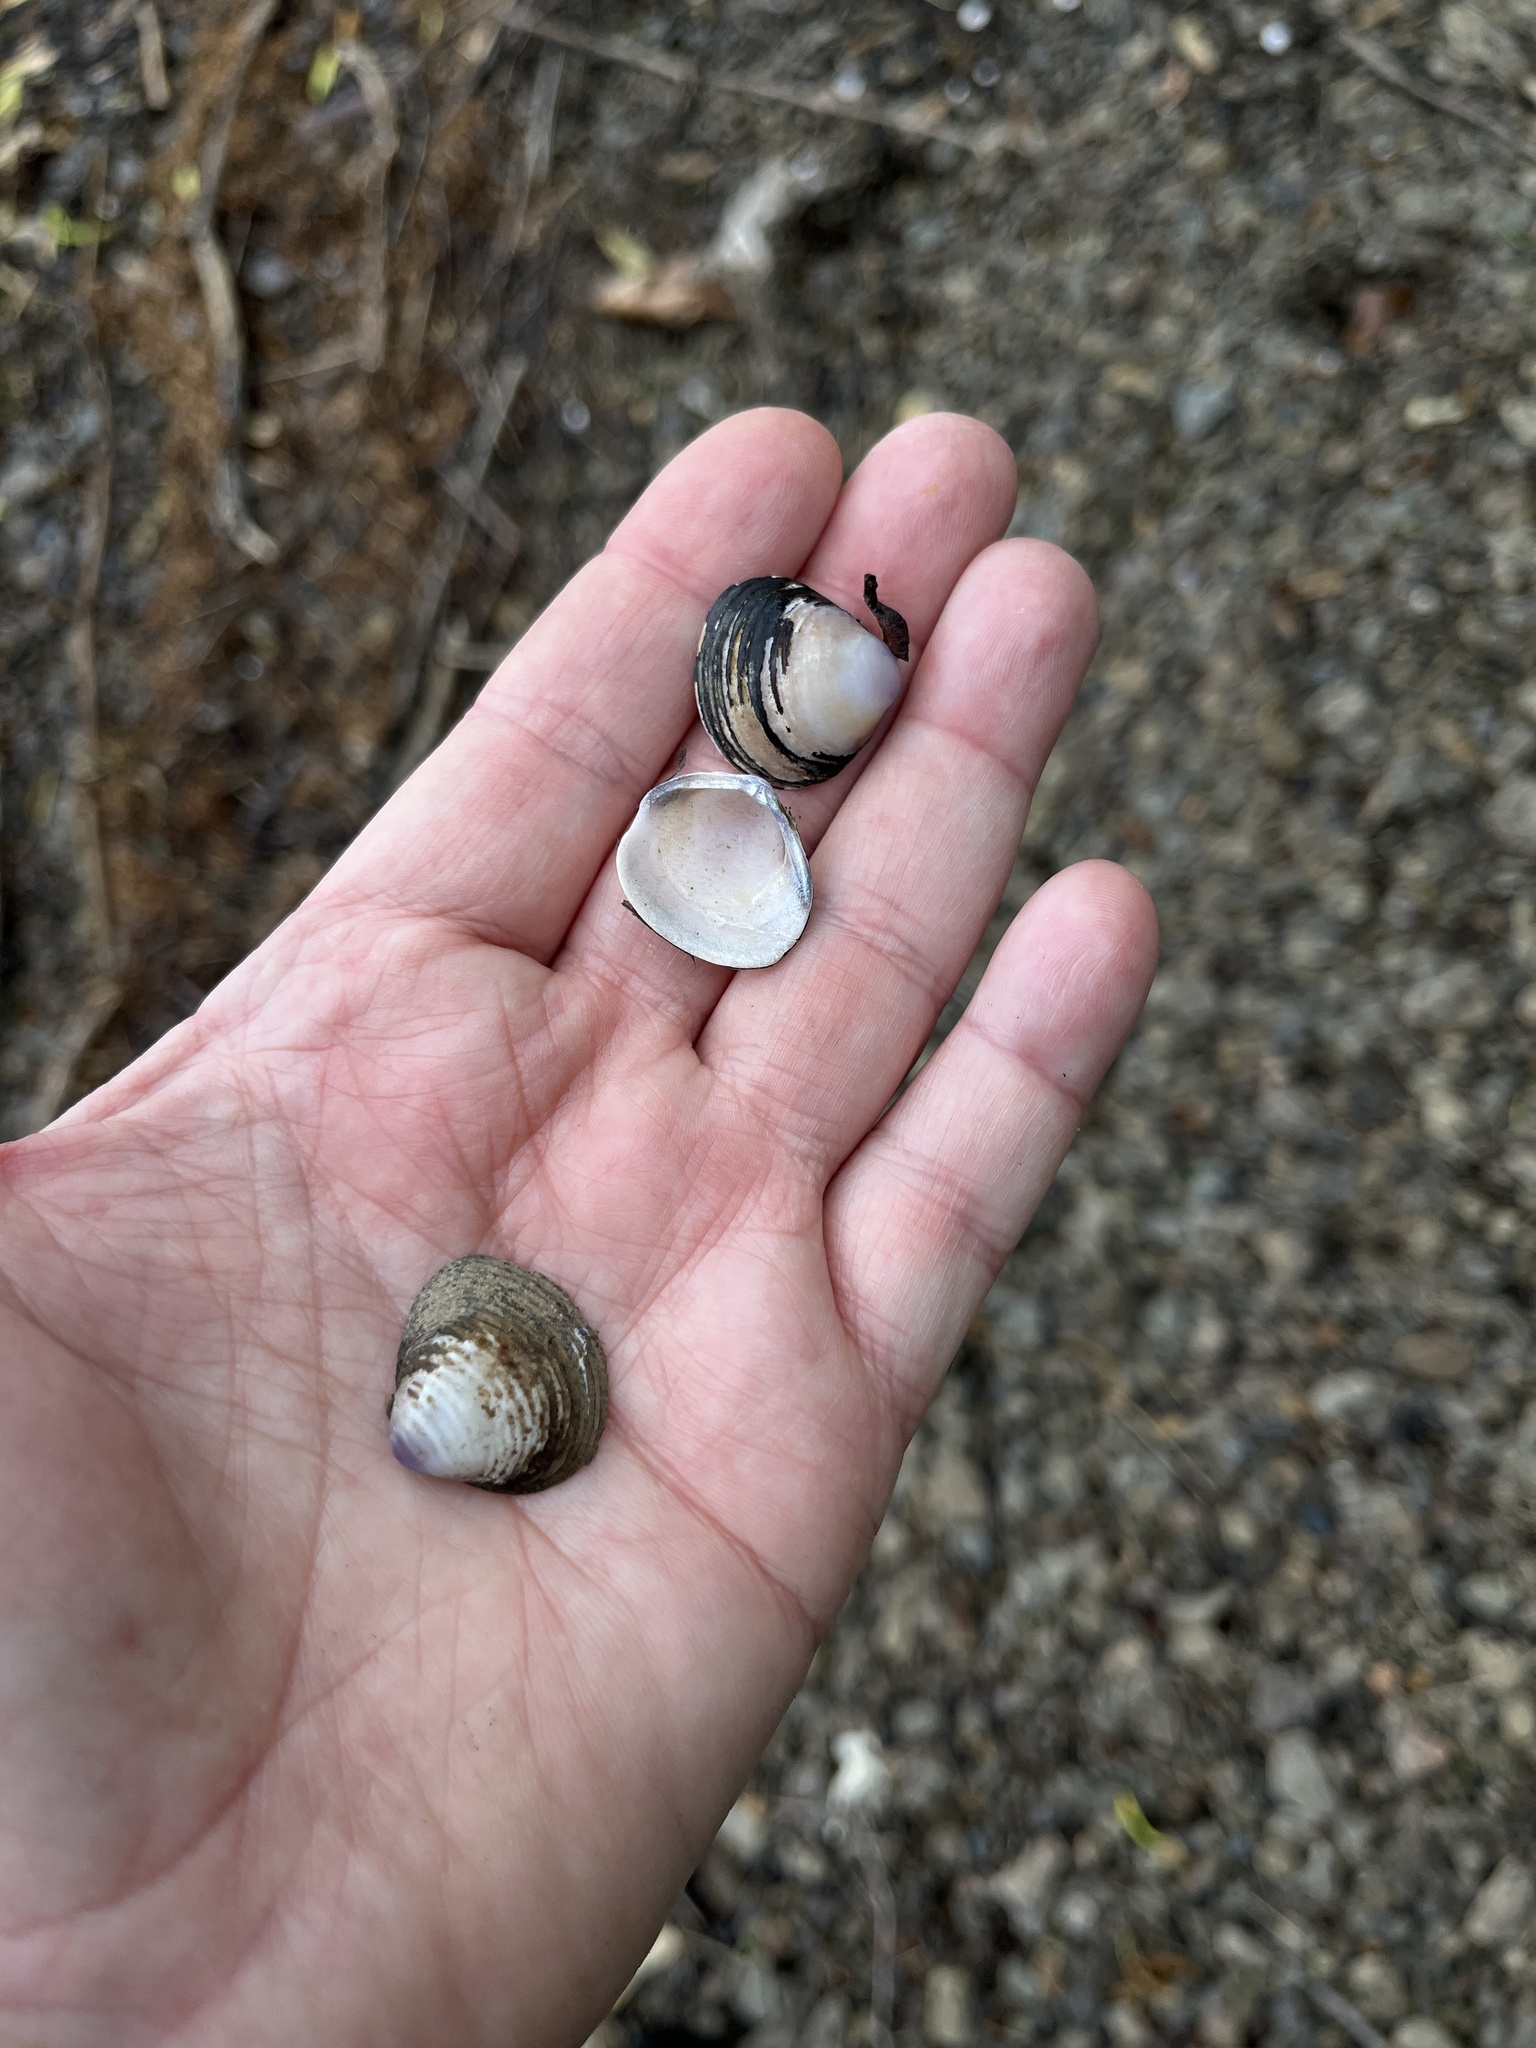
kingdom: Animalia
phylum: Mollusca
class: Bivalvia
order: Venerida
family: Cyrenidae
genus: Corbicula
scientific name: Corbicula fluminea
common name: Asian clam
